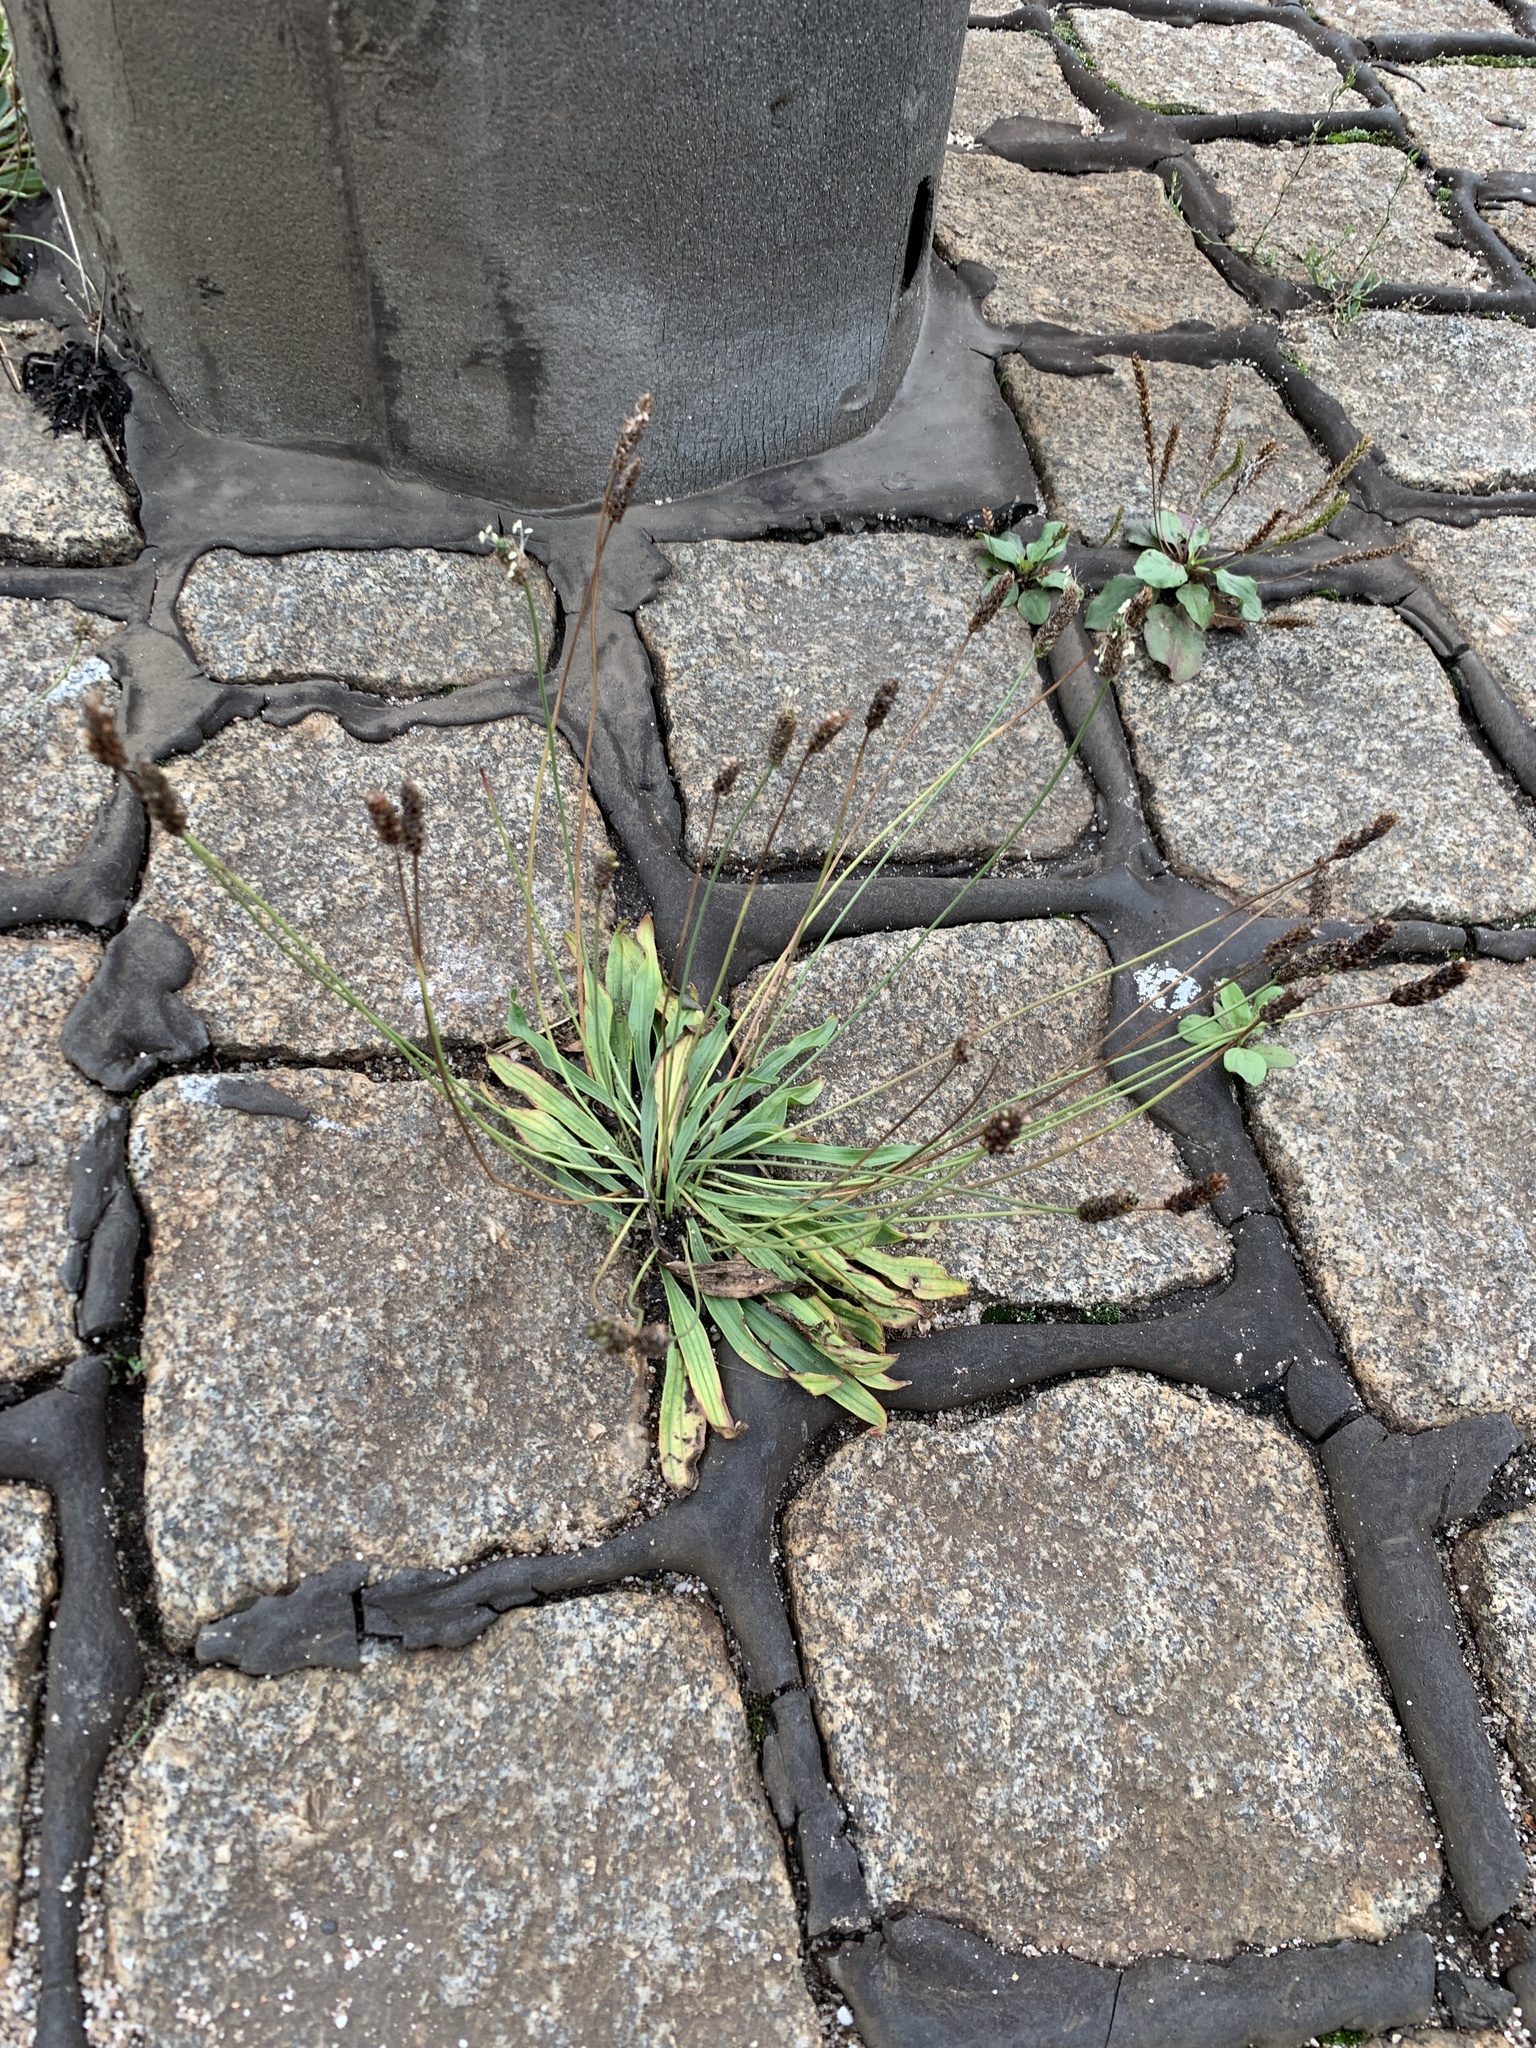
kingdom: Plantae
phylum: Tracheophyta
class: Magnoliopsida
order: Lamiales
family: Plantaginaceae
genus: Plantago
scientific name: Plantago lanceolata
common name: Ribwort plantain
